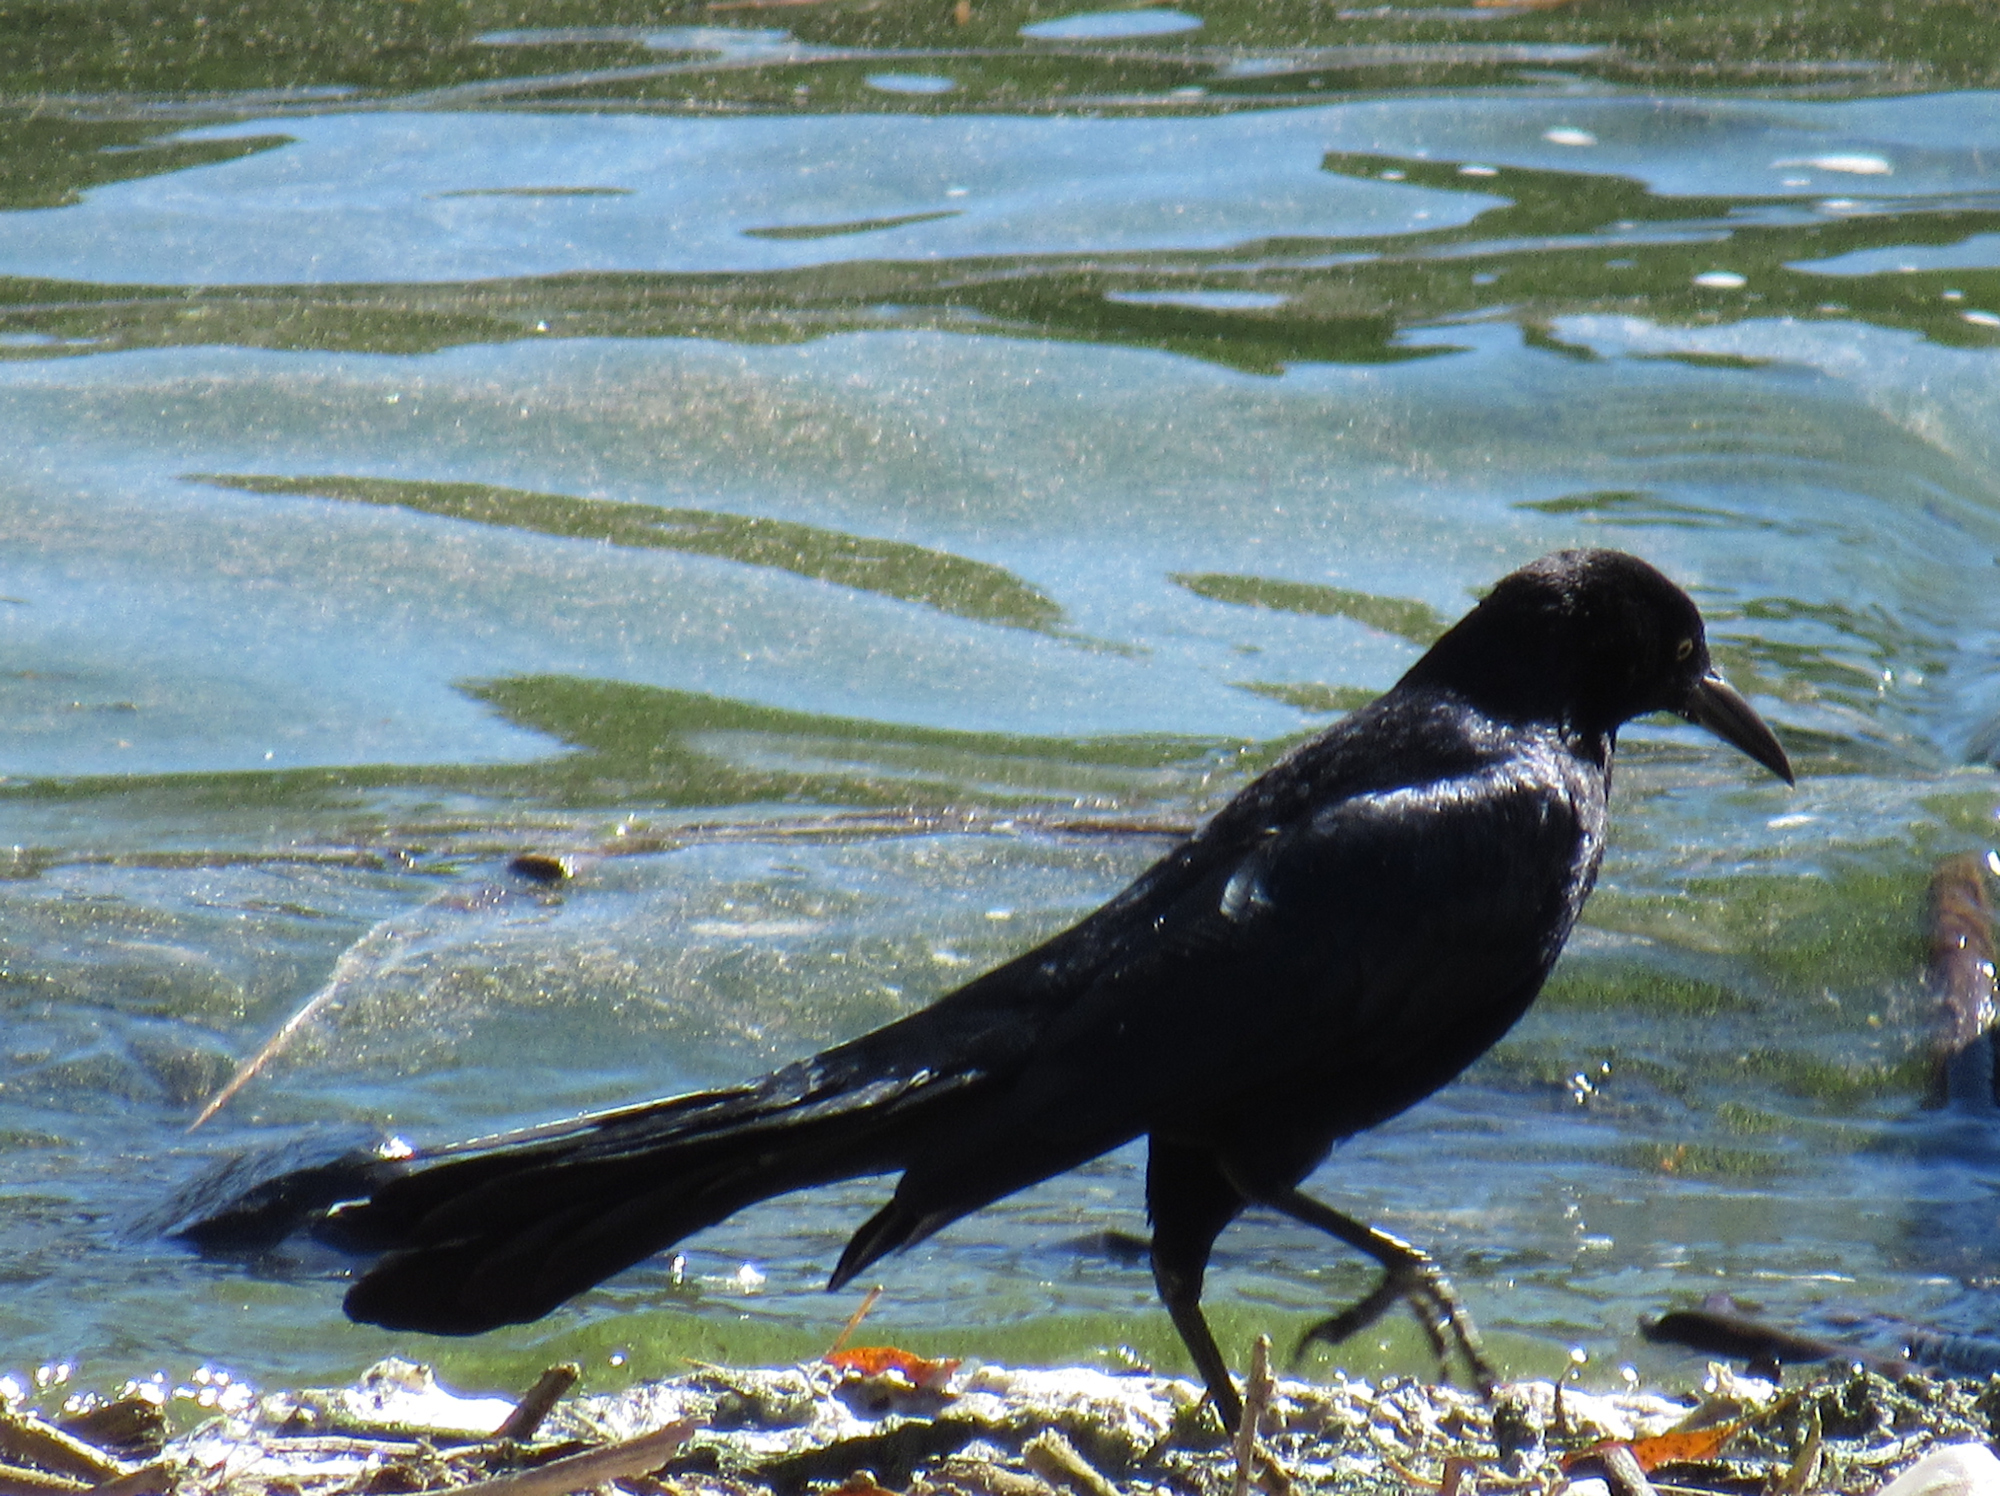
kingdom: Animalia
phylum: Chordata
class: Aves
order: Passeriformes
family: Icteridae
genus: Quiscalus
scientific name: Quiscalus mexicanus
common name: Great-tailed grackle
